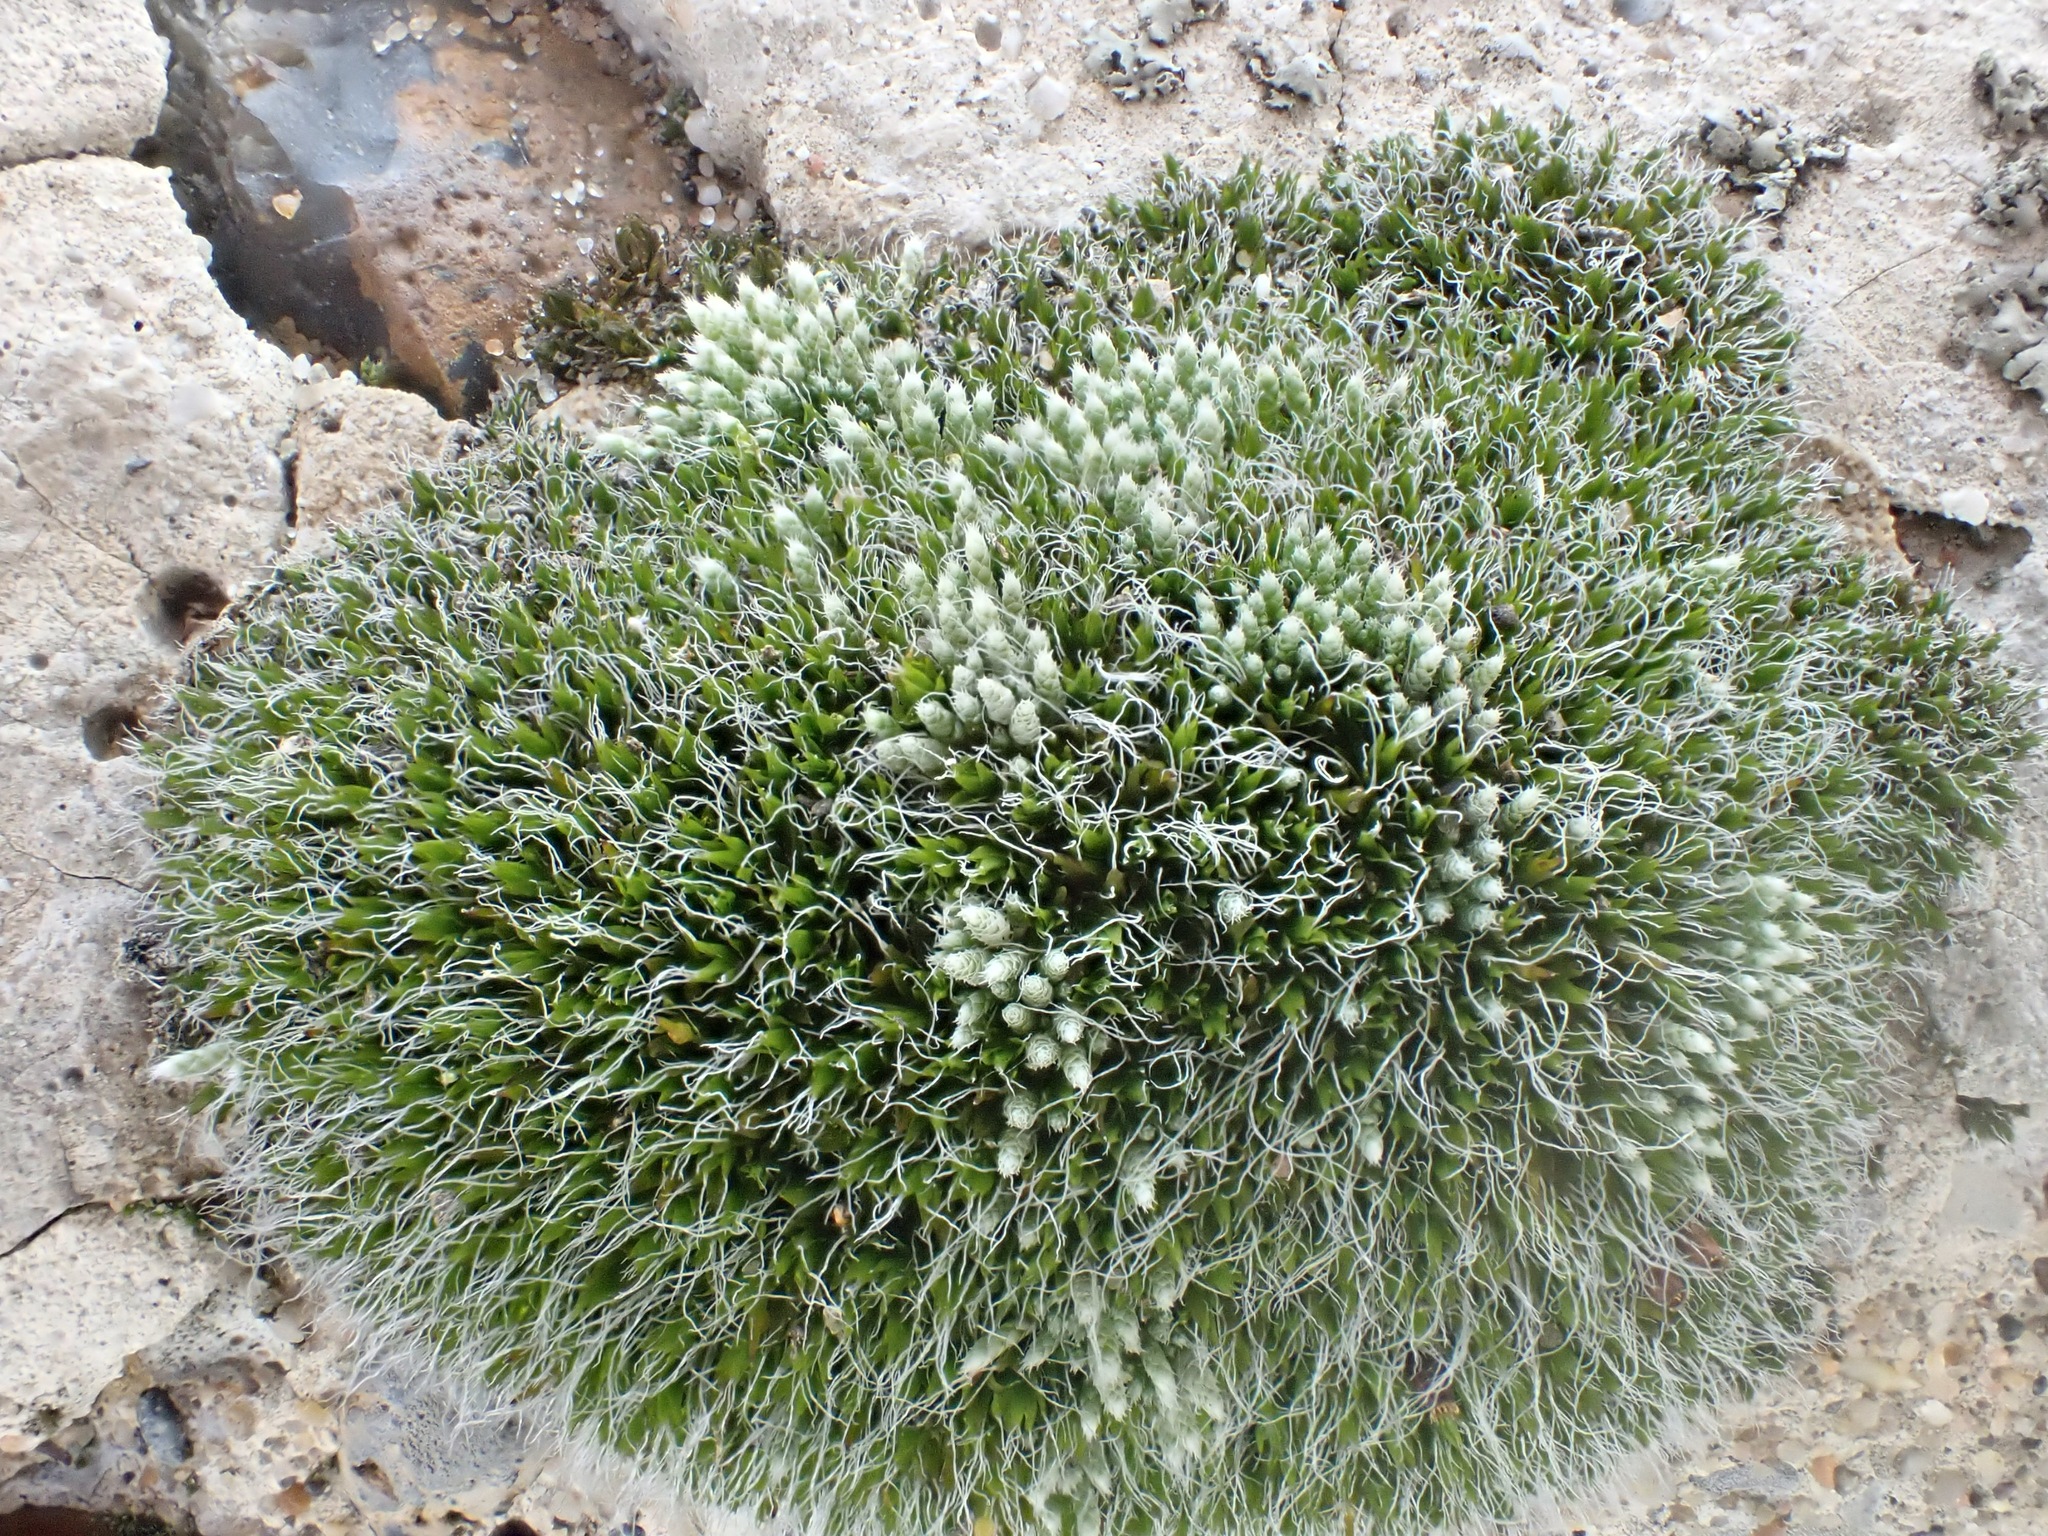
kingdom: Plantae
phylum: Bryophyta
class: Bryopsida
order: Grimmiales
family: Grimmiaceae
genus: Grimmia
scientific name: Grimmia pulvinata
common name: Grey-cushioned grimmia
